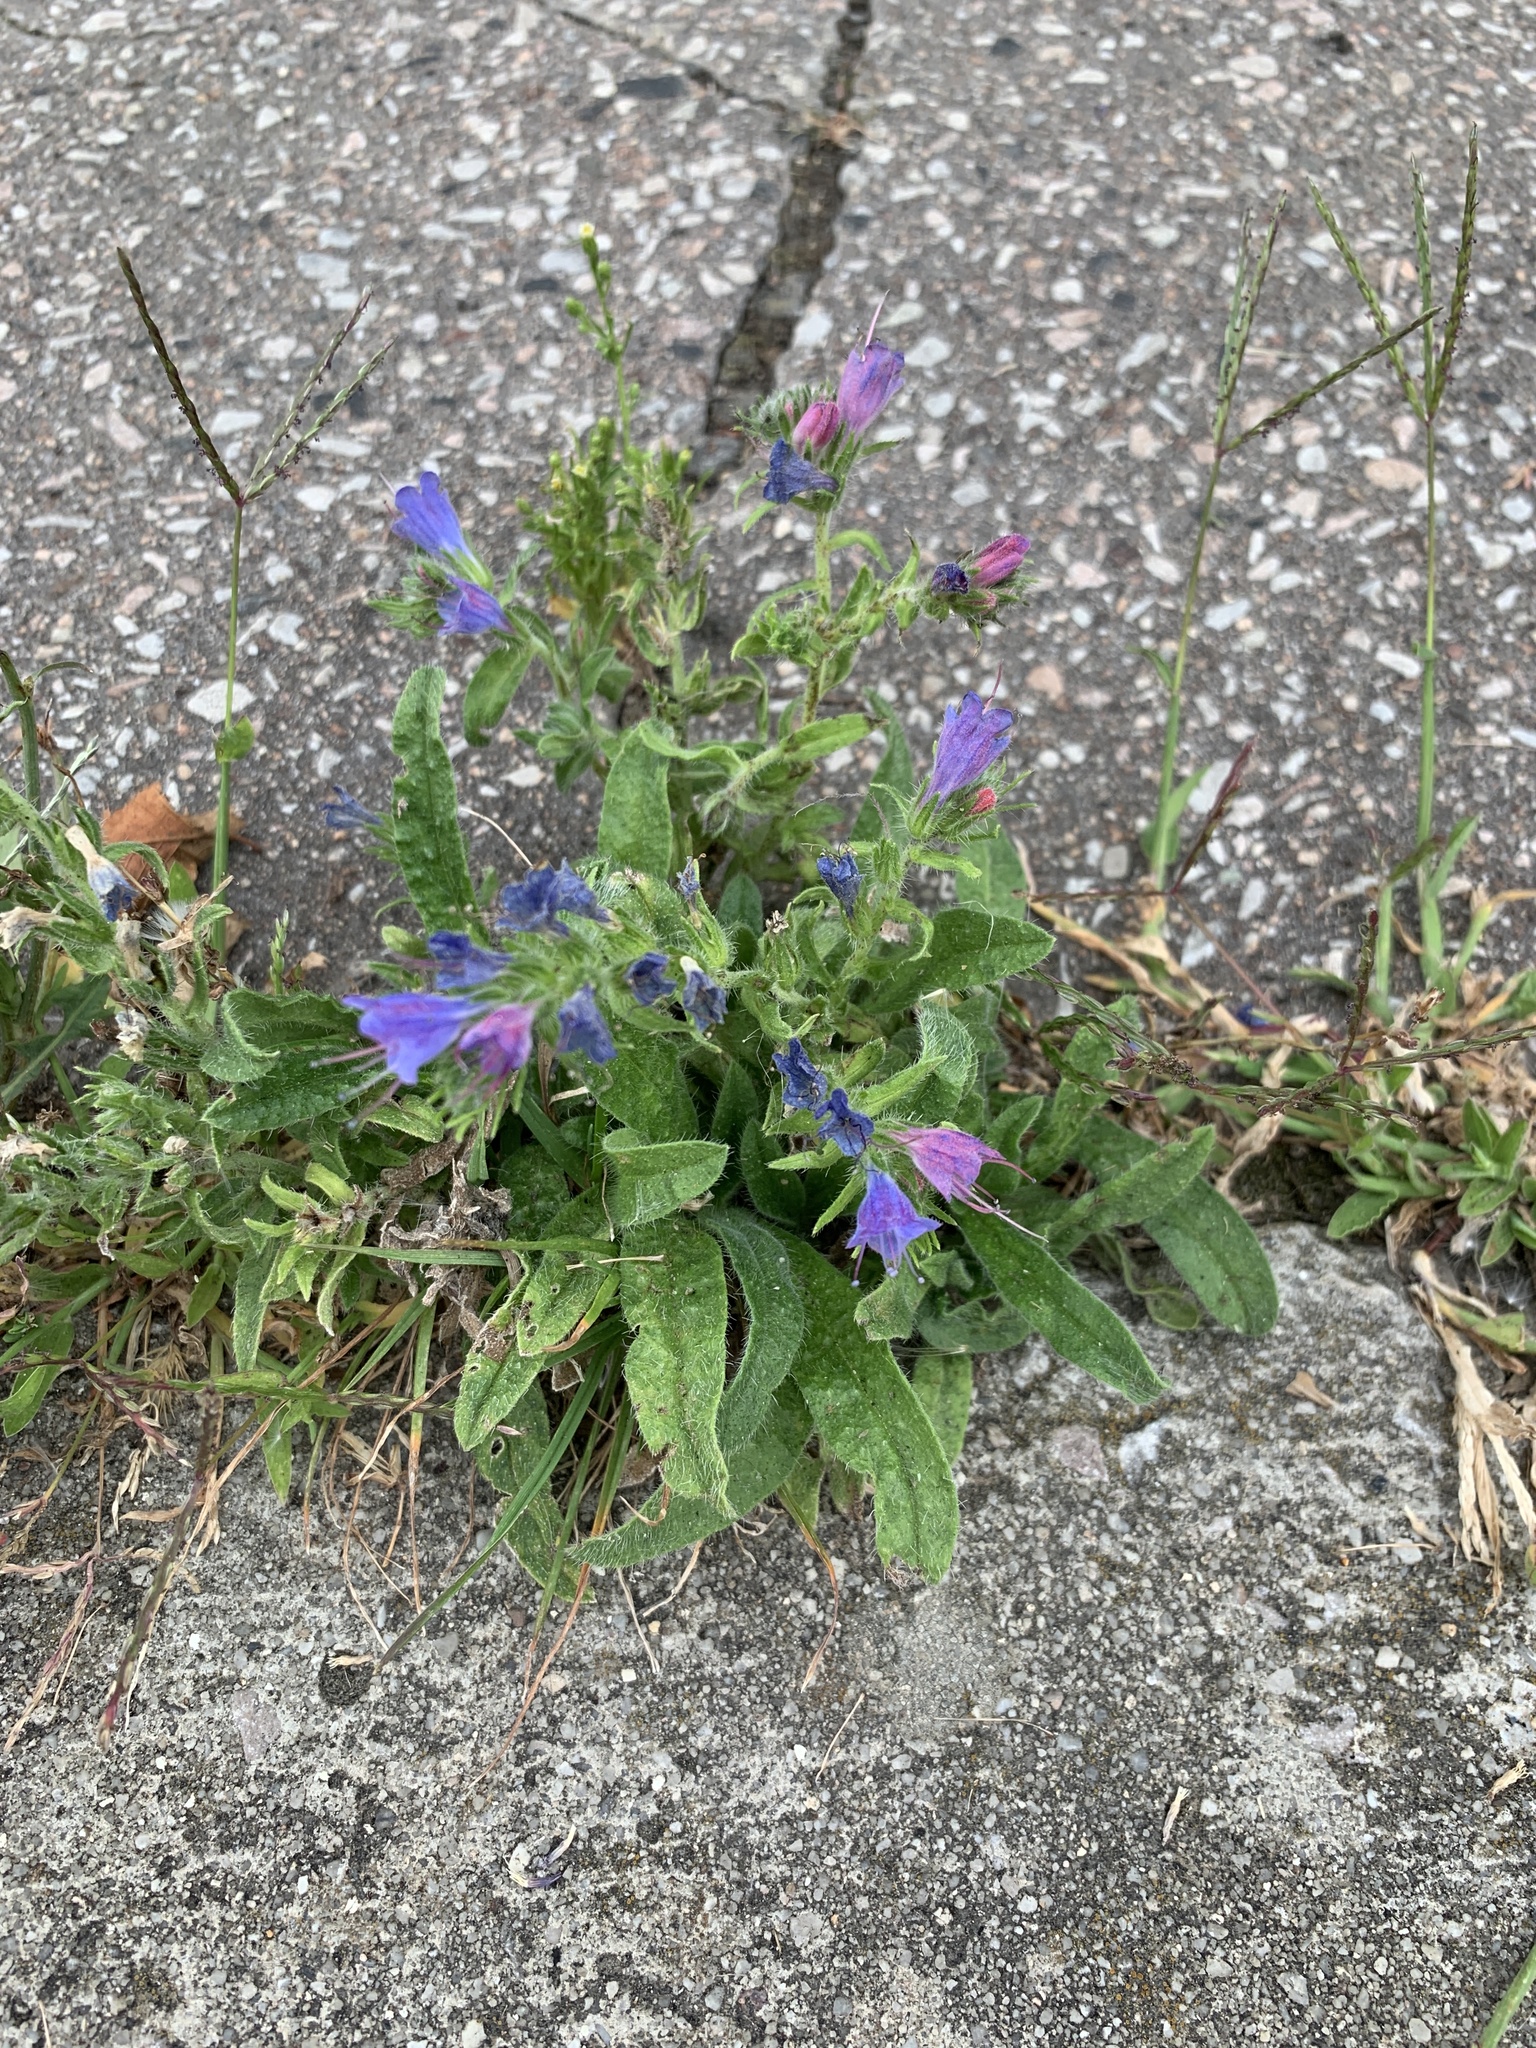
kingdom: Plantae
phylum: Tracheophyta
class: Magnoliopsida
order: Asterales
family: Asteraceae
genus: Cichorium
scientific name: Cichorium intybus
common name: Chicory
